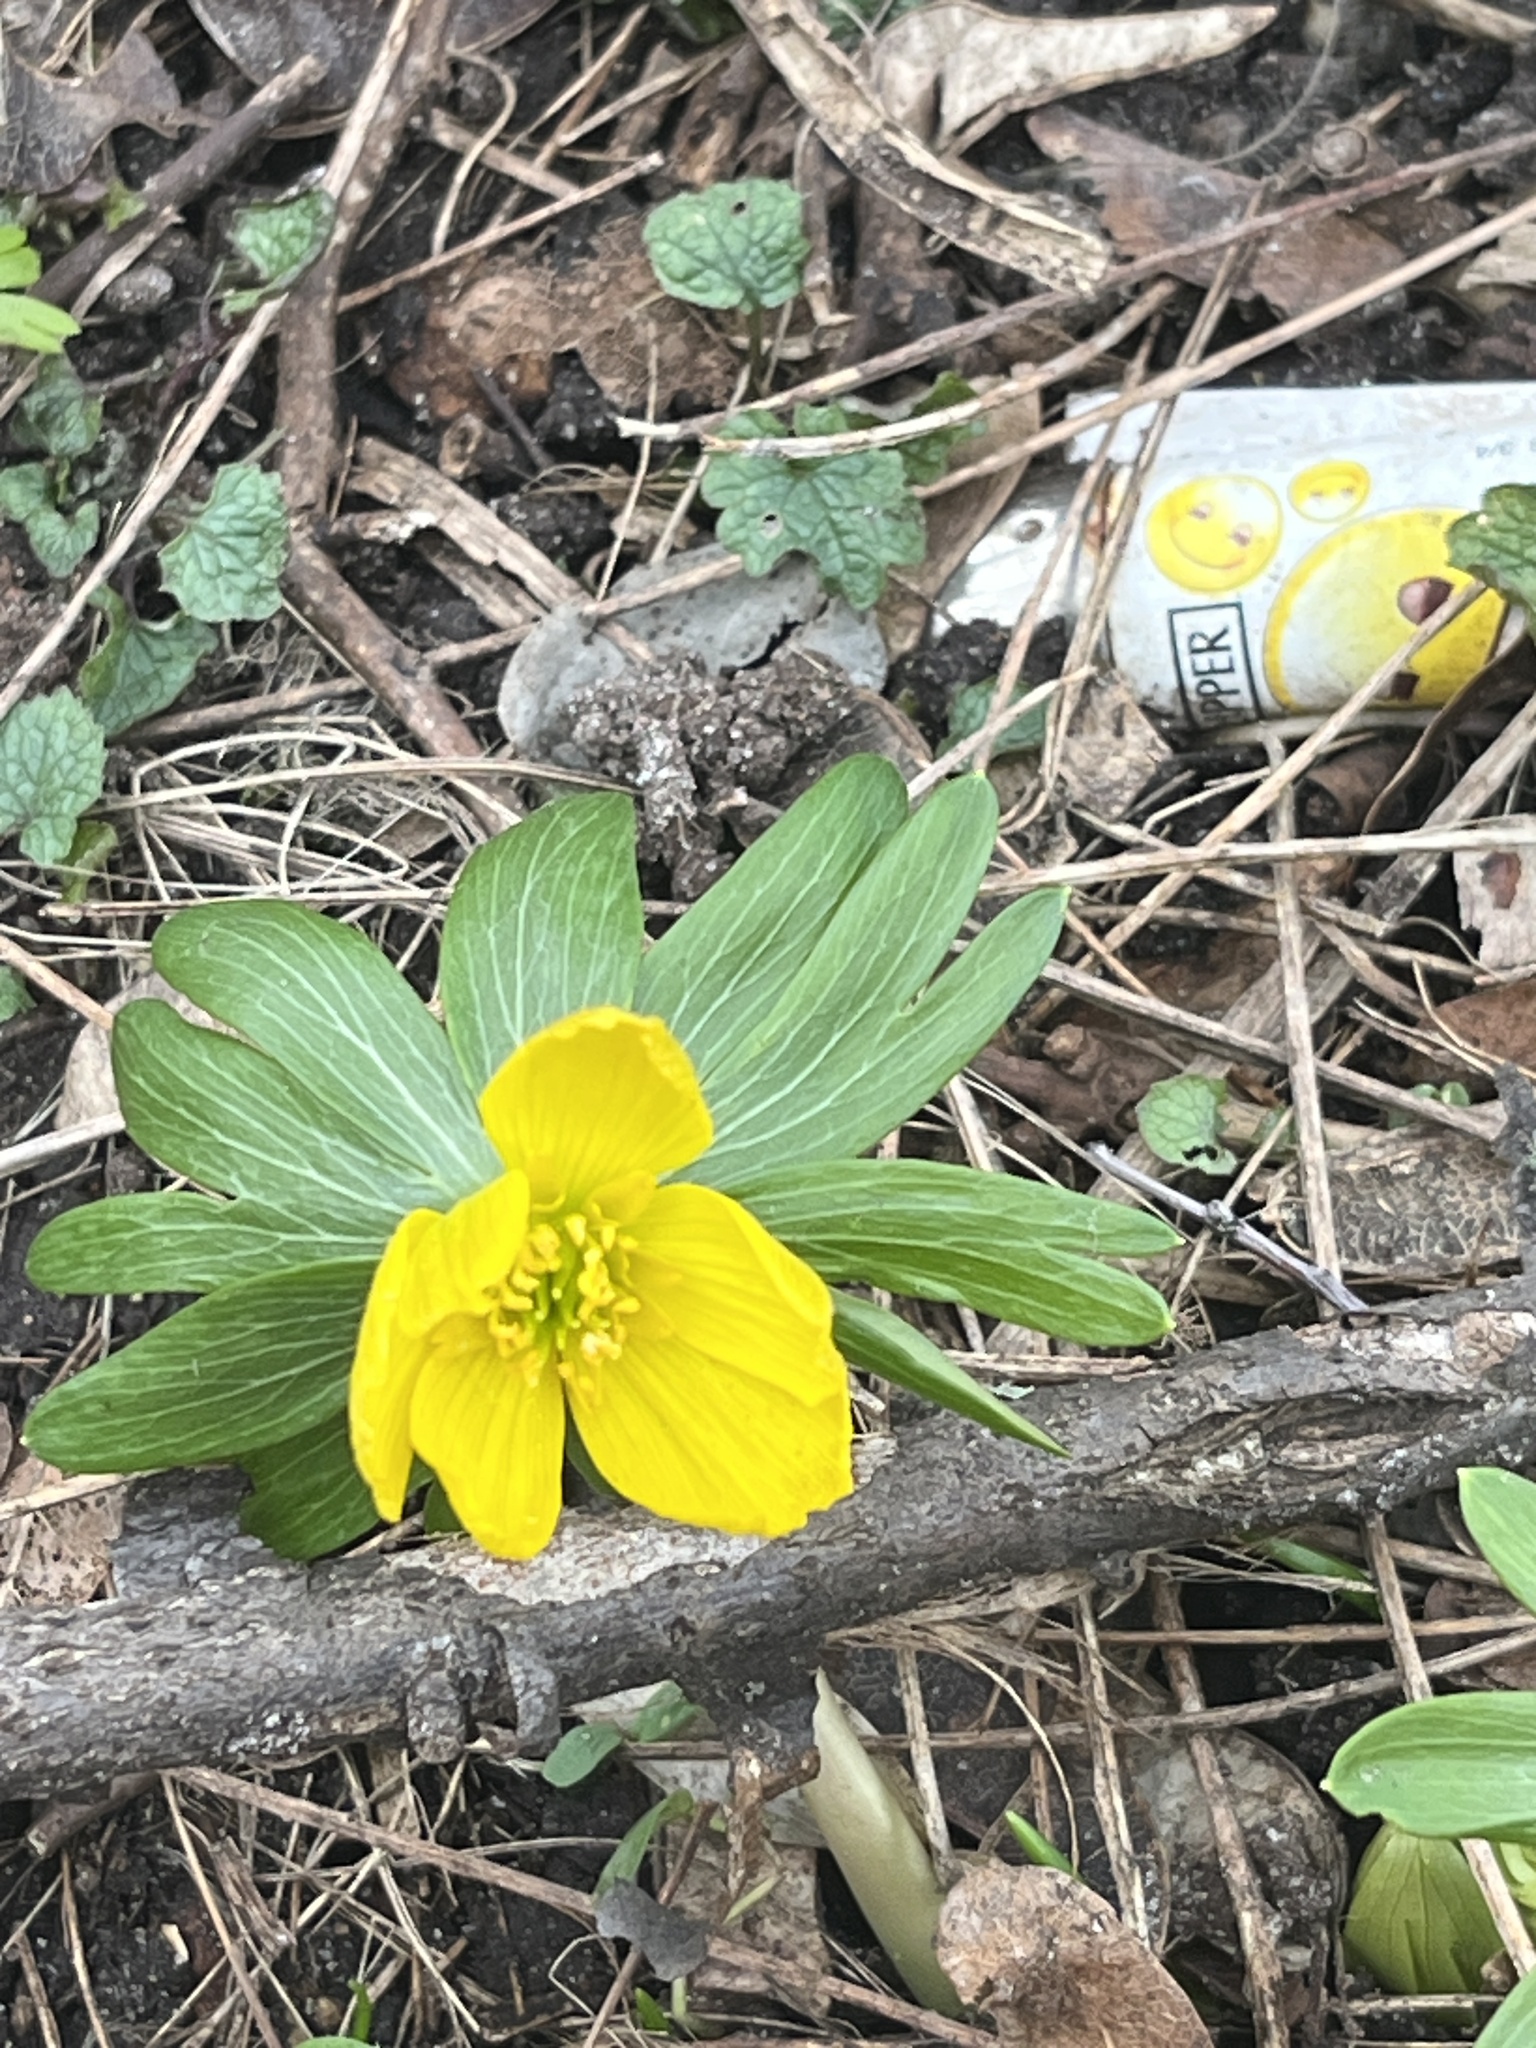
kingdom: Plantae
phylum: Tracheophyta
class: Magnoliopsida
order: Ranunculales
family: Ranunculaceae
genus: Eranthis
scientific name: Eranthis hyemalis
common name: Winter aconite
